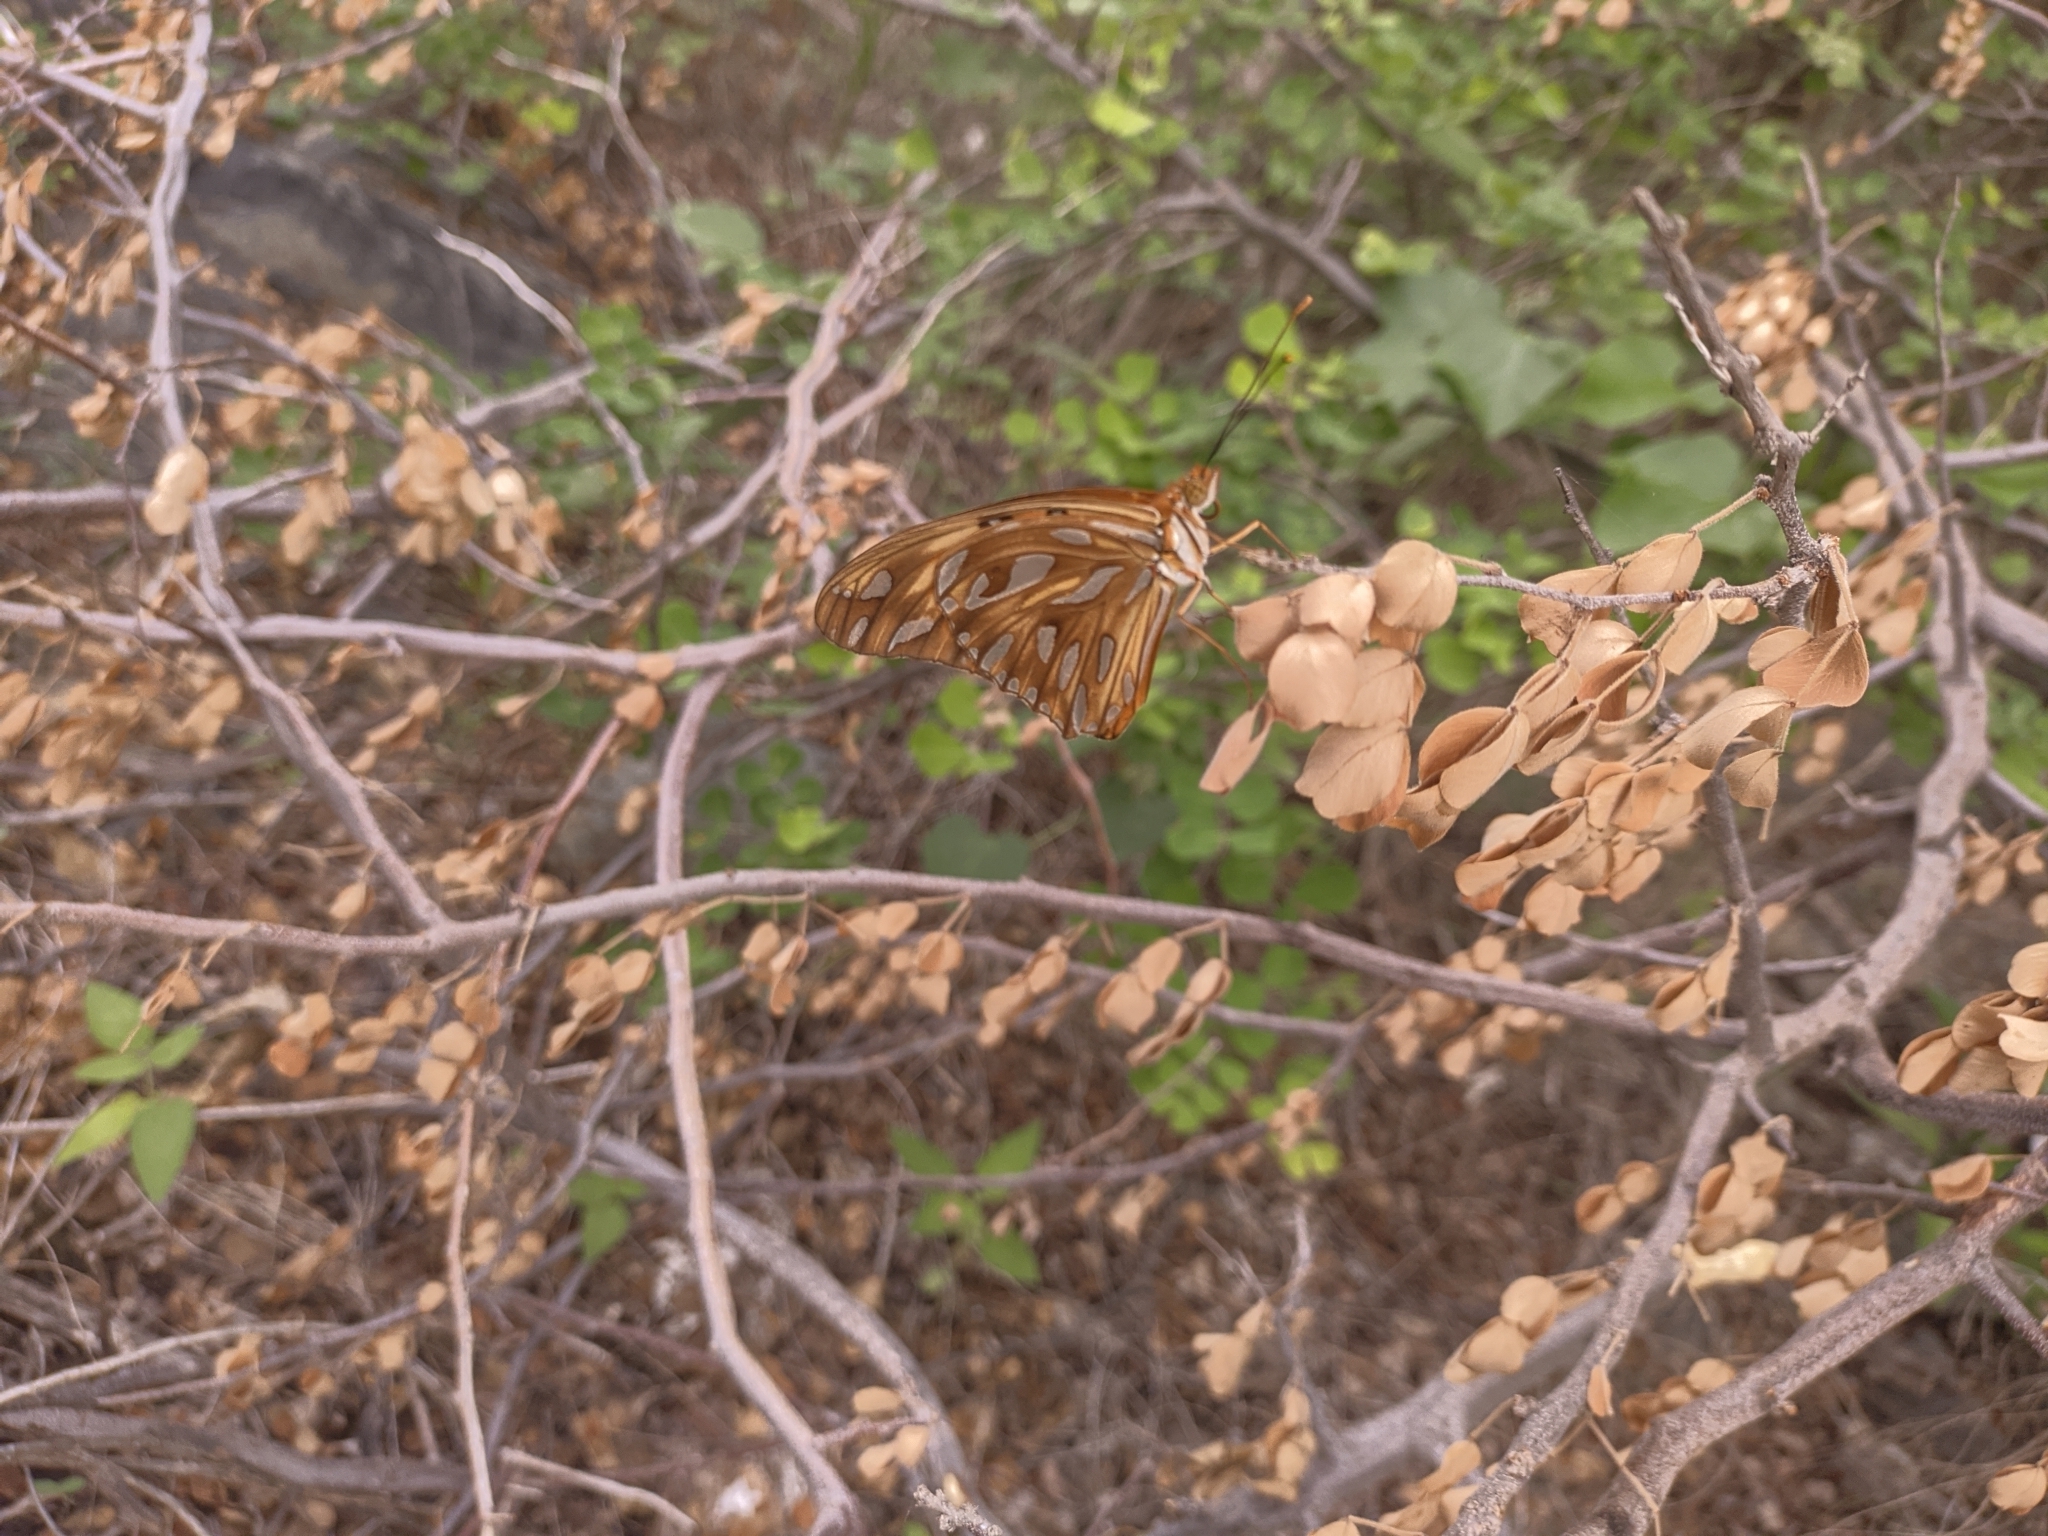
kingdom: Animalia
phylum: Arthropoda
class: Insecta
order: Lepidoptera
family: Nymphalidae
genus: Dione
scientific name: Dione vanillae
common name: Gulf fritillary
